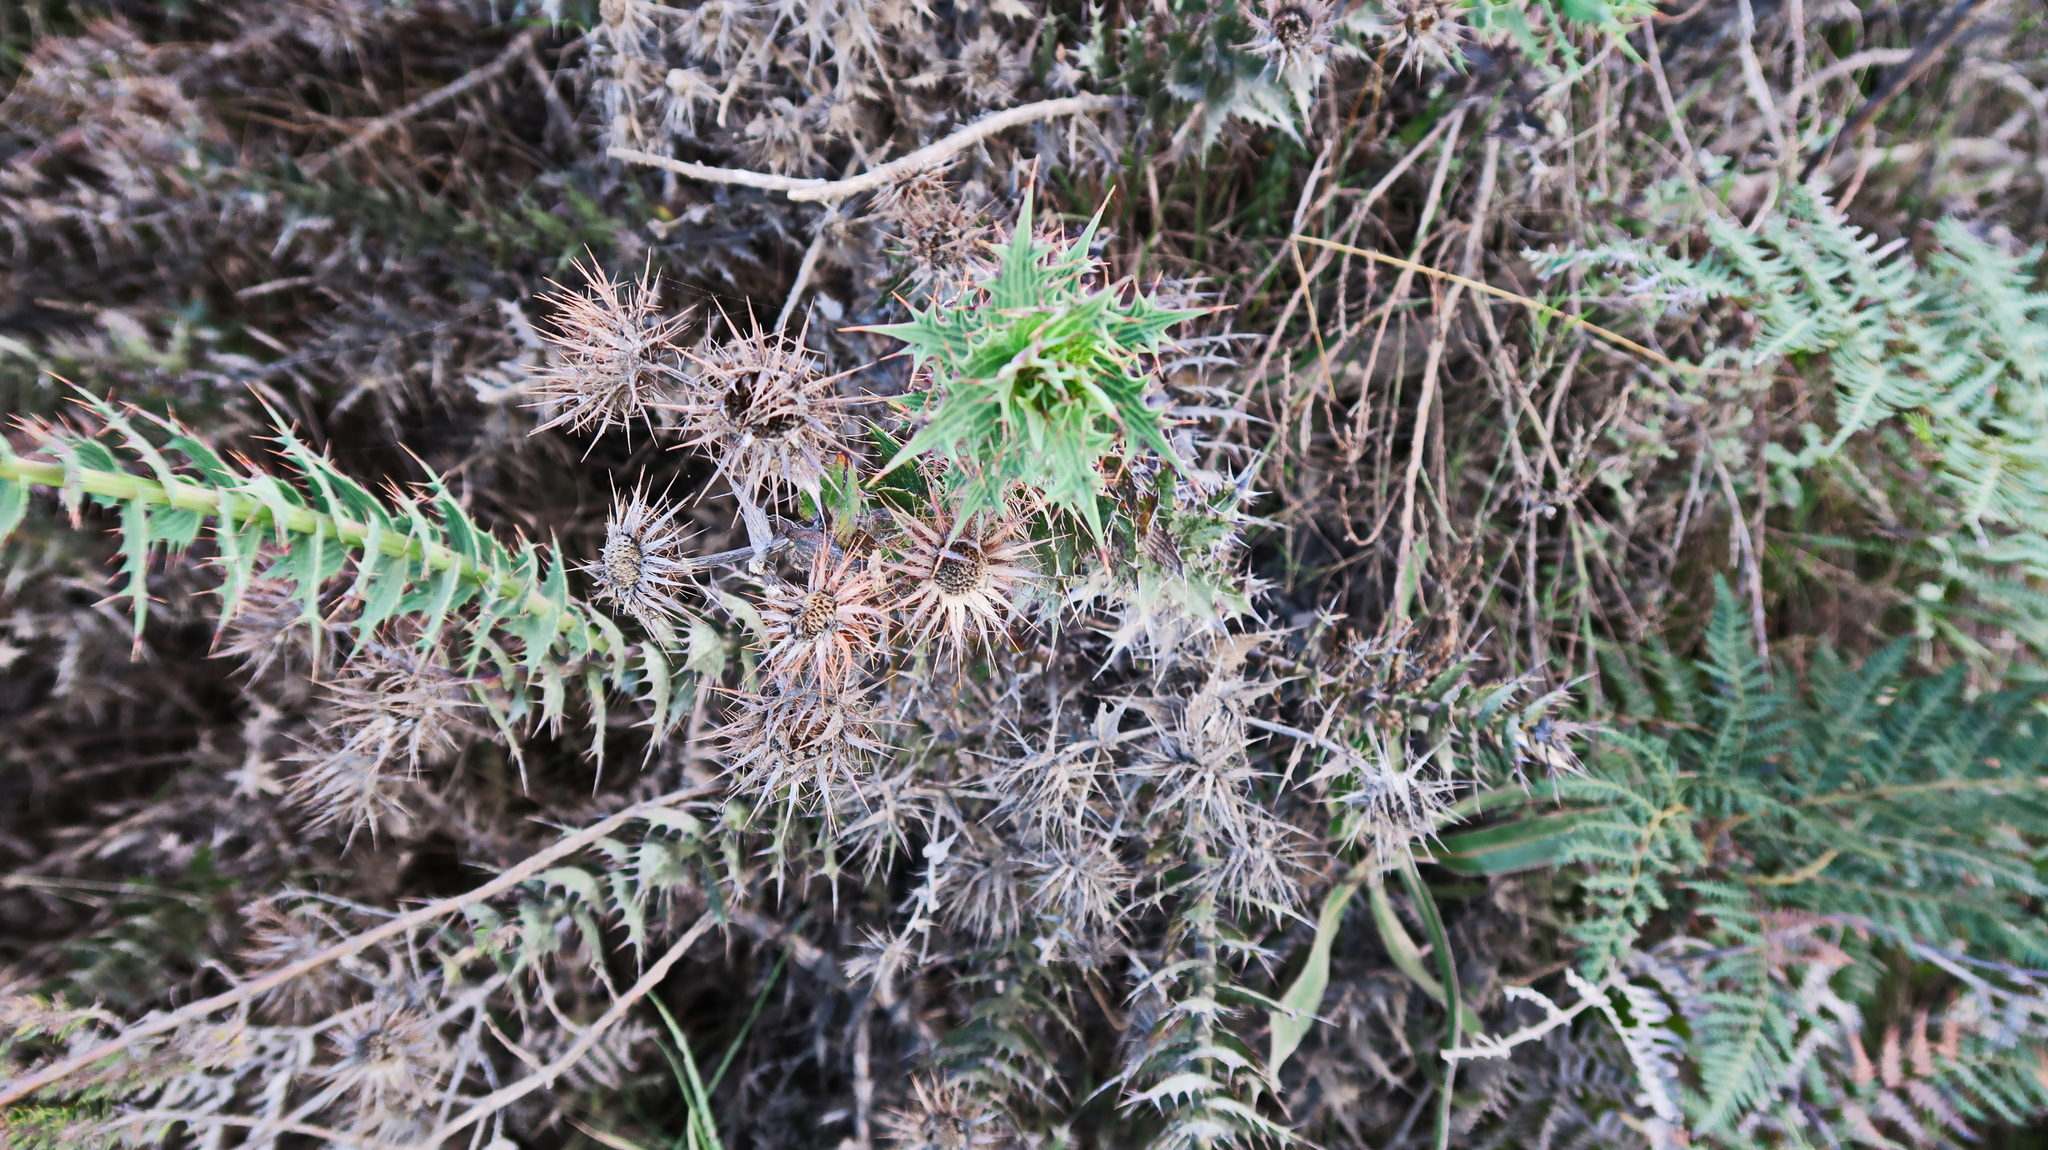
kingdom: Plantae
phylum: Tracheophyta
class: Magnoliopsida
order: Asterales
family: Asteraceae
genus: Berkheya
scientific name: Berkheya cruciata
